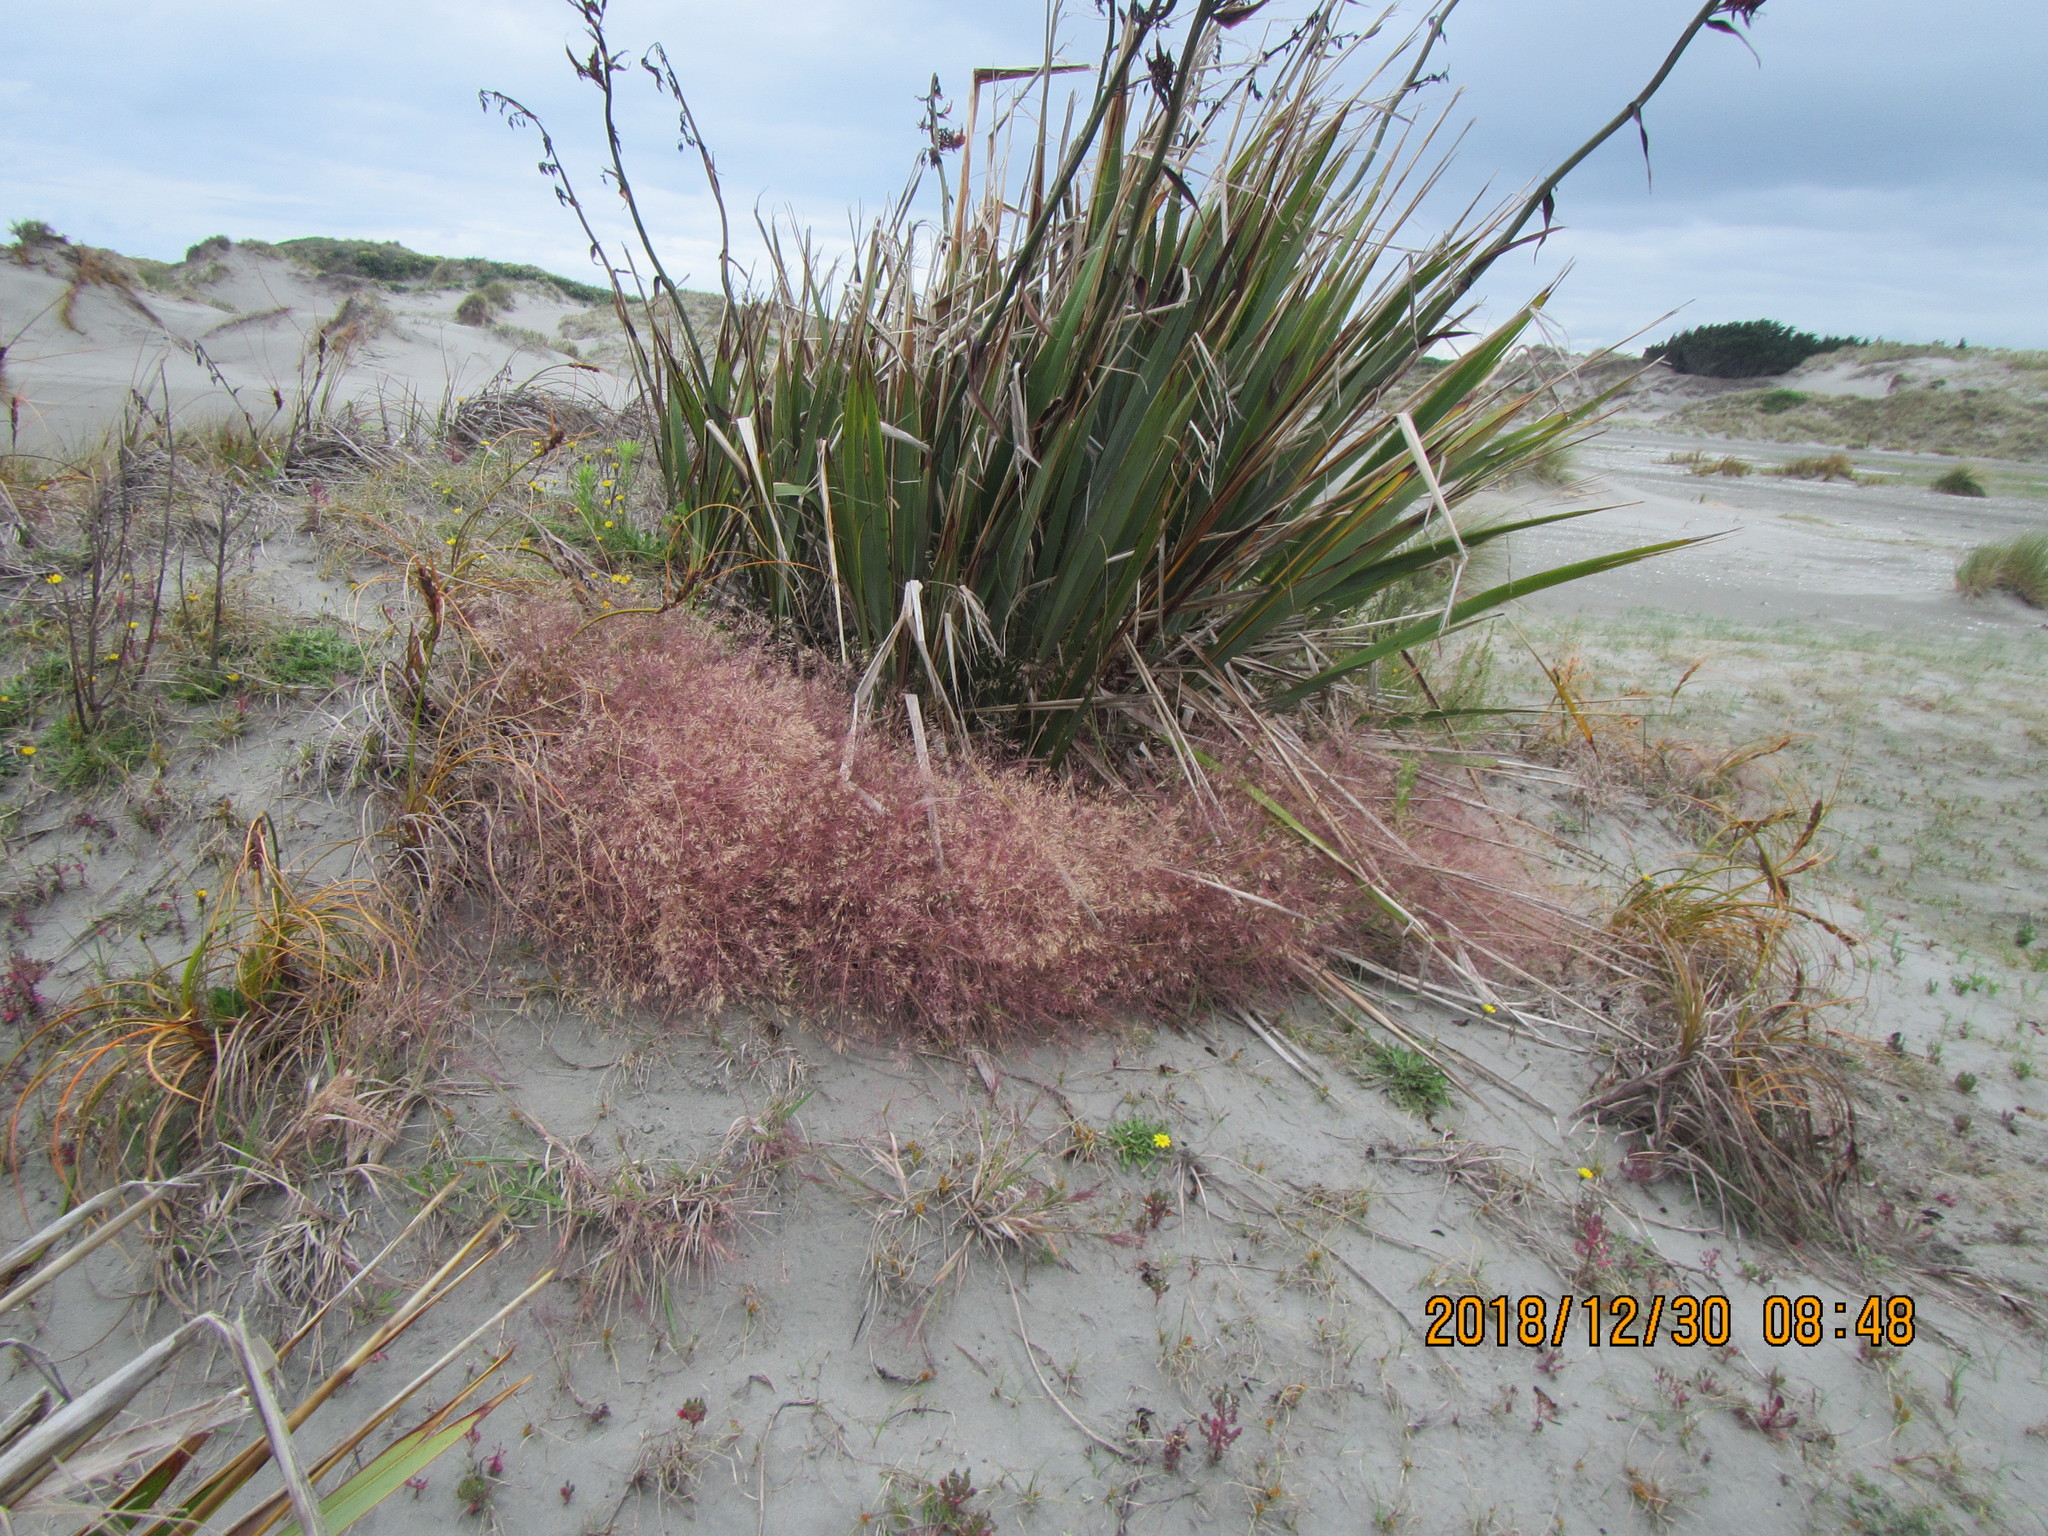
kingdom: Plantae
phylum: Tracheophyta
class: Liliopsida
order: Poales
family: Poaceae
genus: Lachnagrostis
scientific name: Lachnagrostis billardierei
